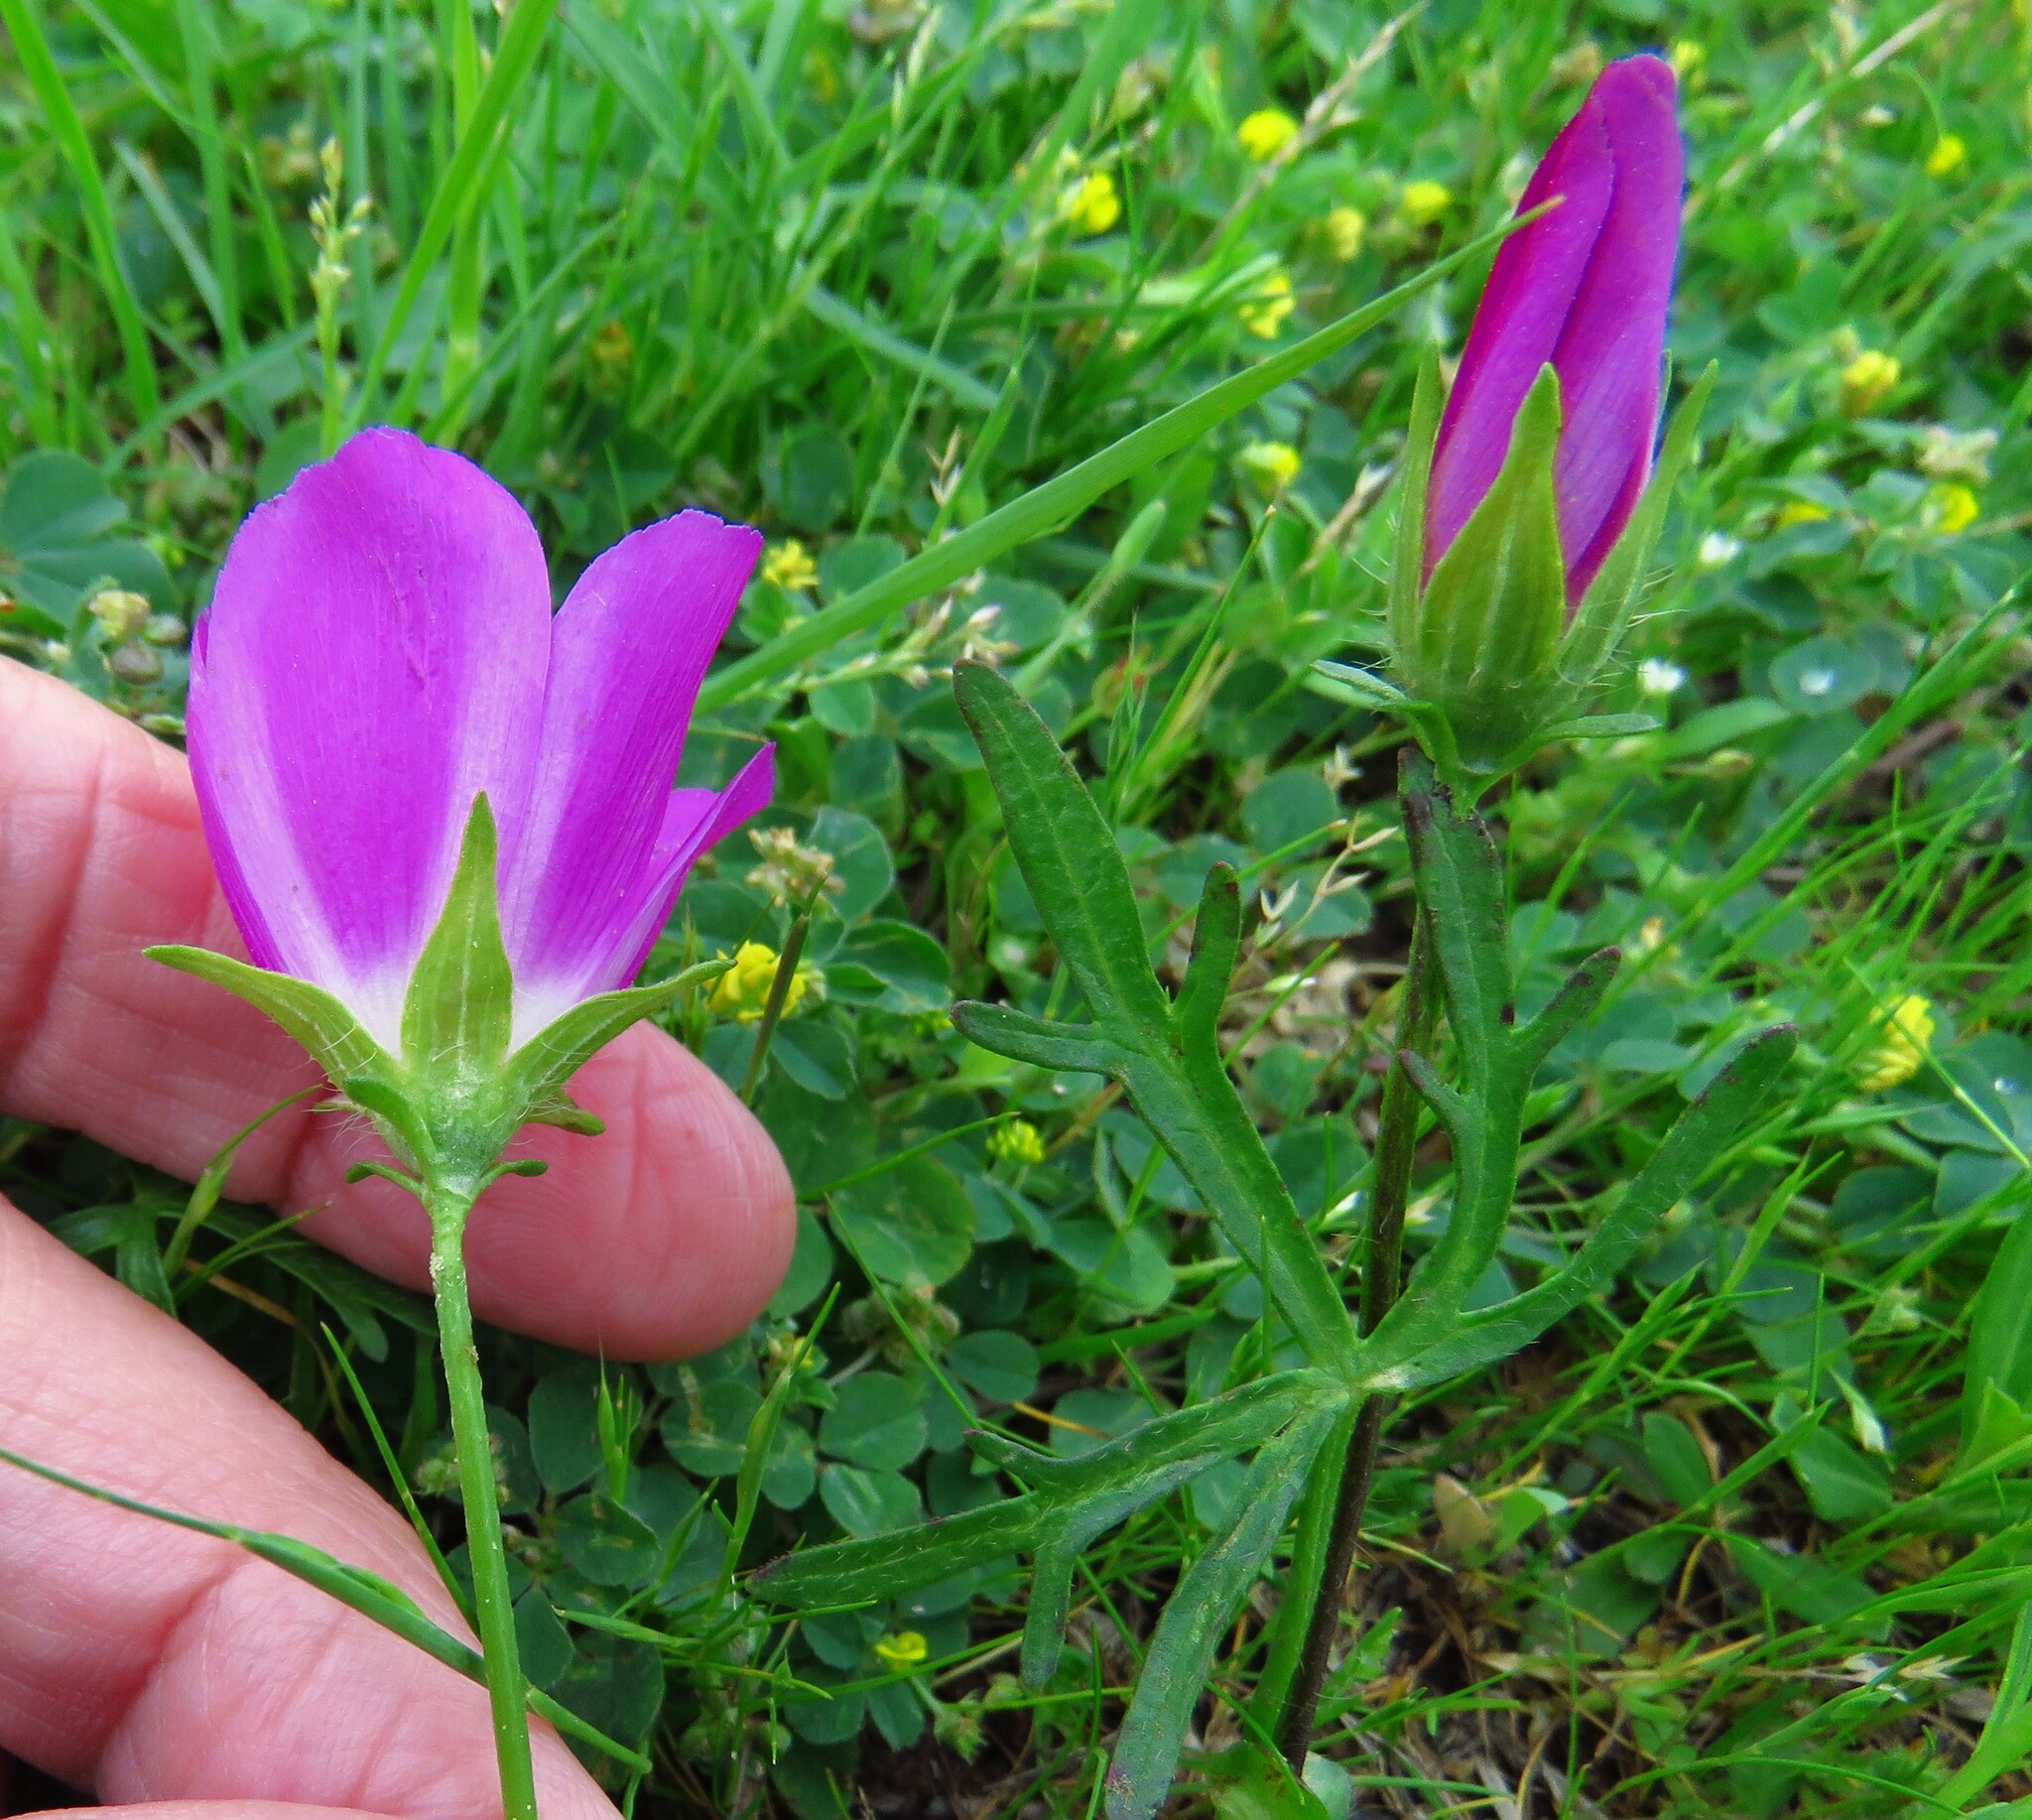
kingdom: Plantae
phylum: Tracheophyta
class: Magnoliopsida
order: Malvales
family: Malvaceae
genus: Callirhoe
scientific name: Callirhoe involucrata
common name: Purple poppy-mallow
